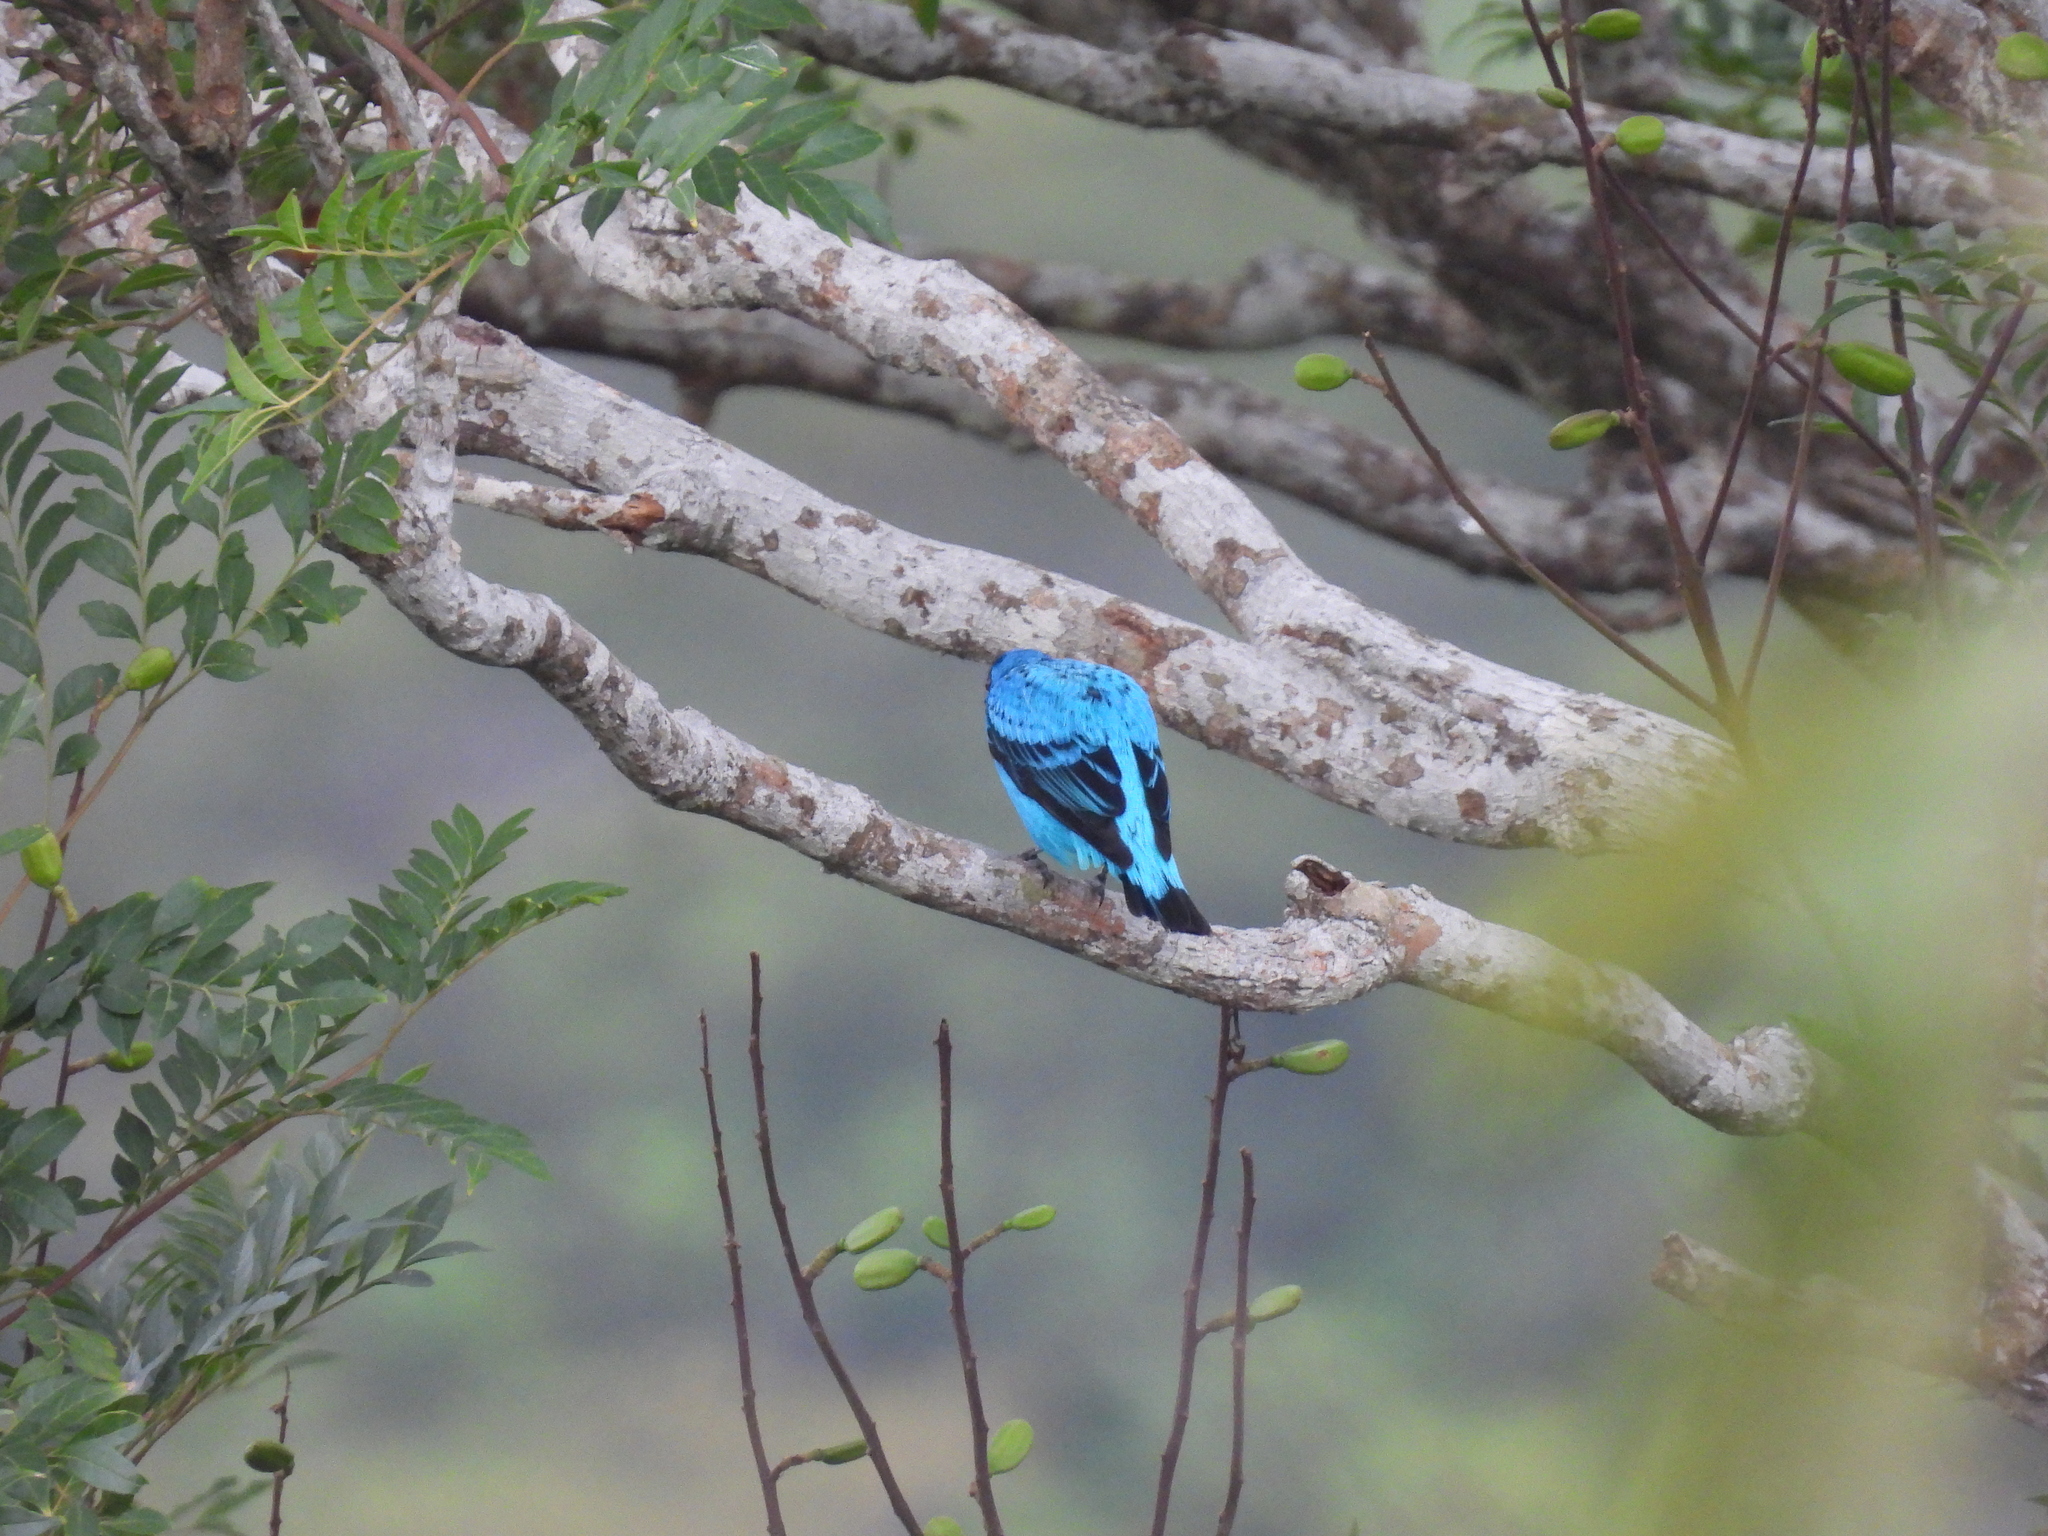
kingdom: Animalia
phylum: Chordata
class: Aves
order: Passeriformes
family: Cotingidae
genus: Cotinga
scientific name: Cotinga nattererii
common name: Blue cotinga
